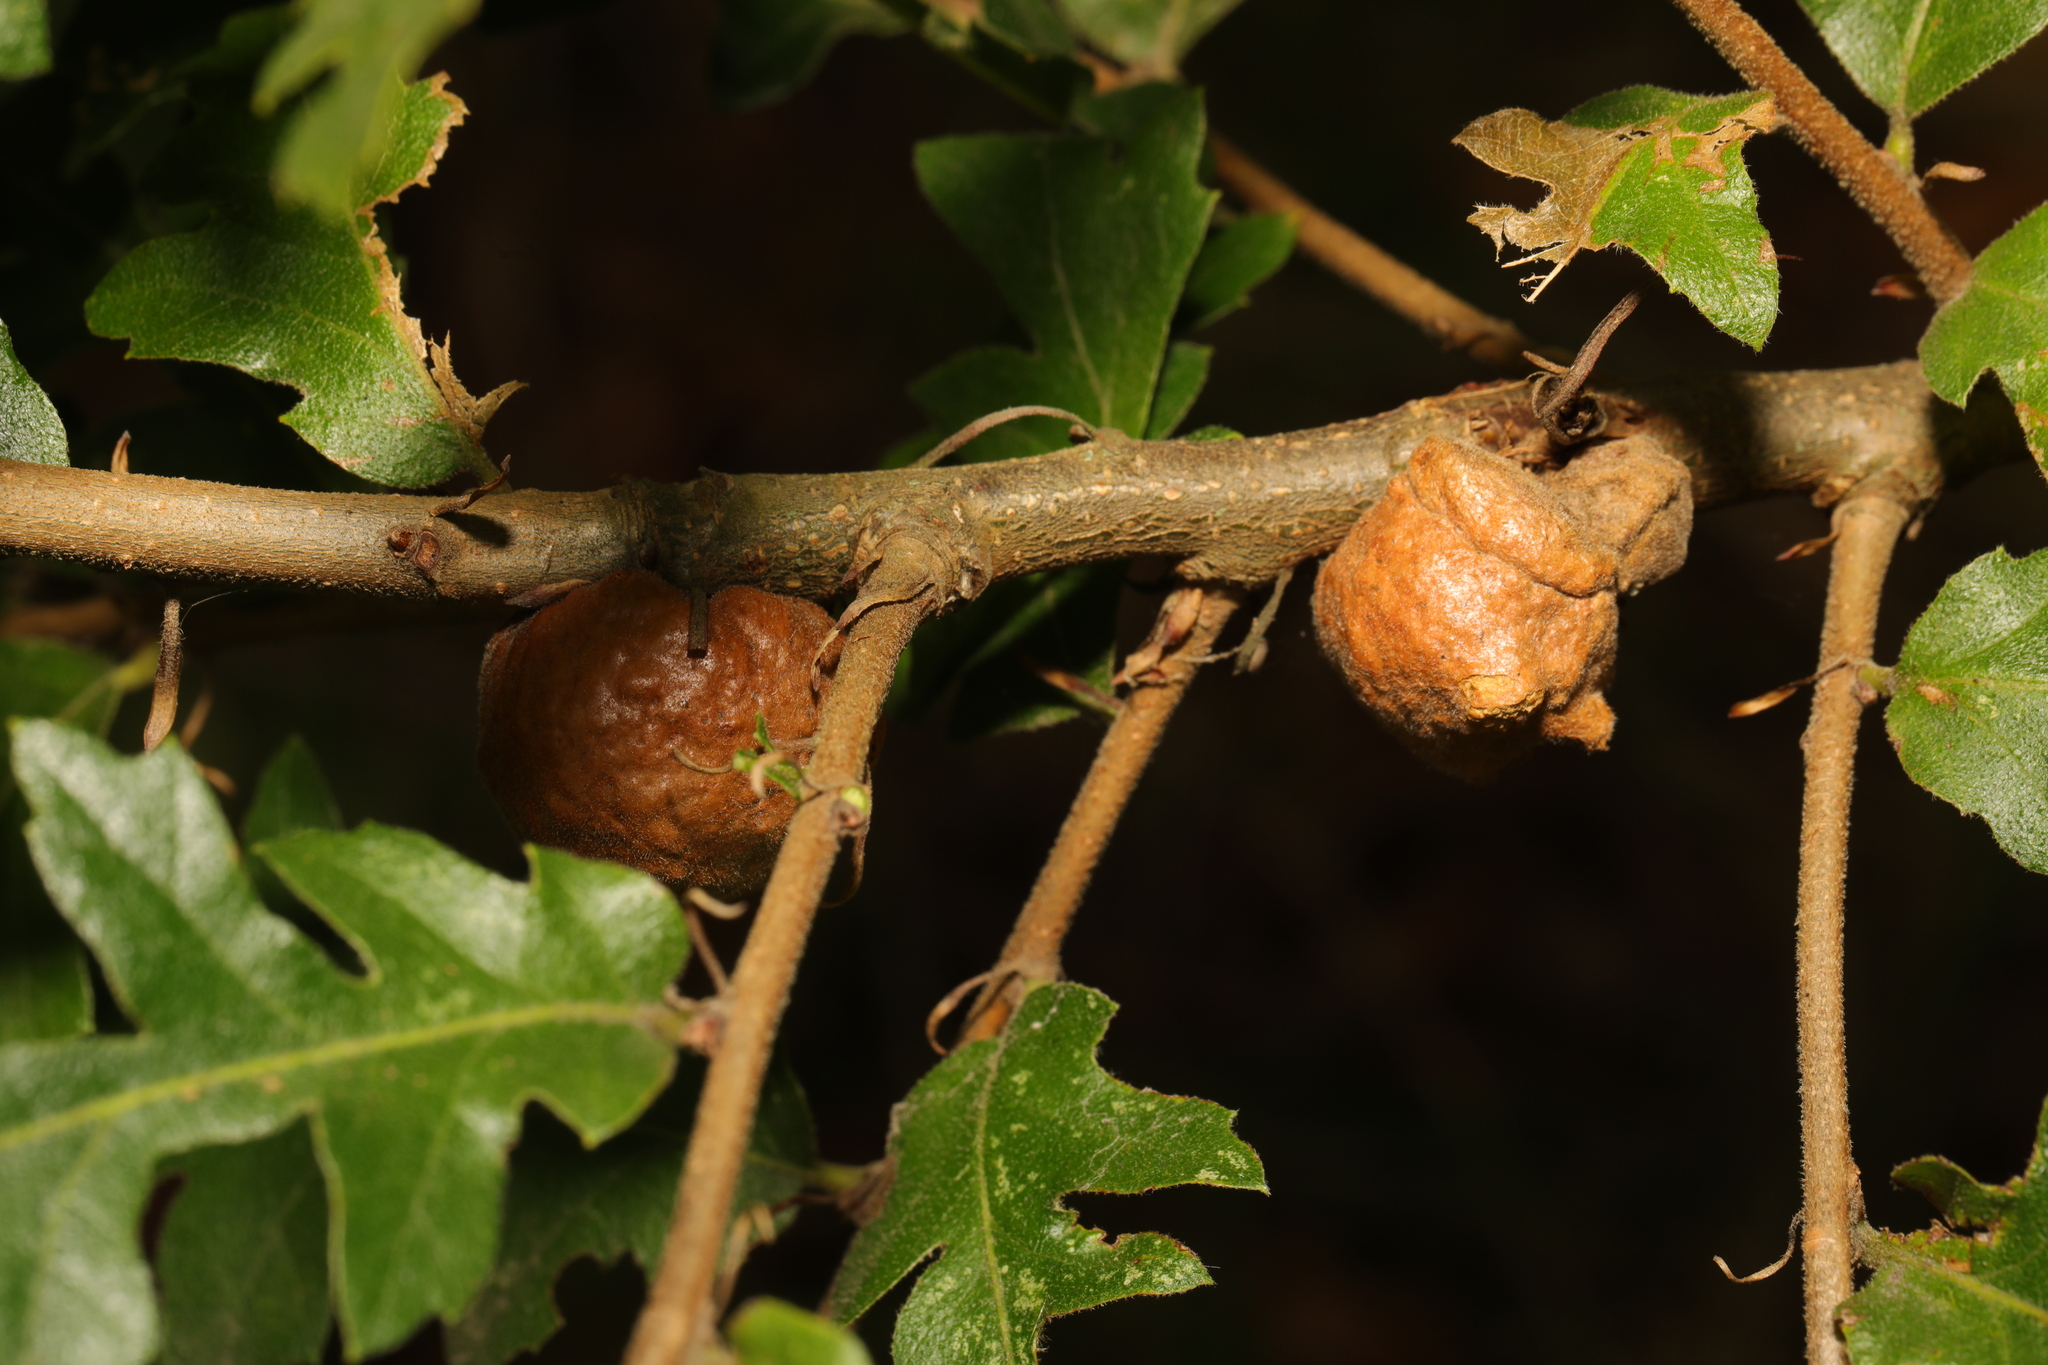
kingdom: Animalia
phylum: Arthropoda
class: Insecta
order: Hymenoptera
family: Cynipidae
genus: Aphelonyx
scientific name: Aphelonyx cerricola
